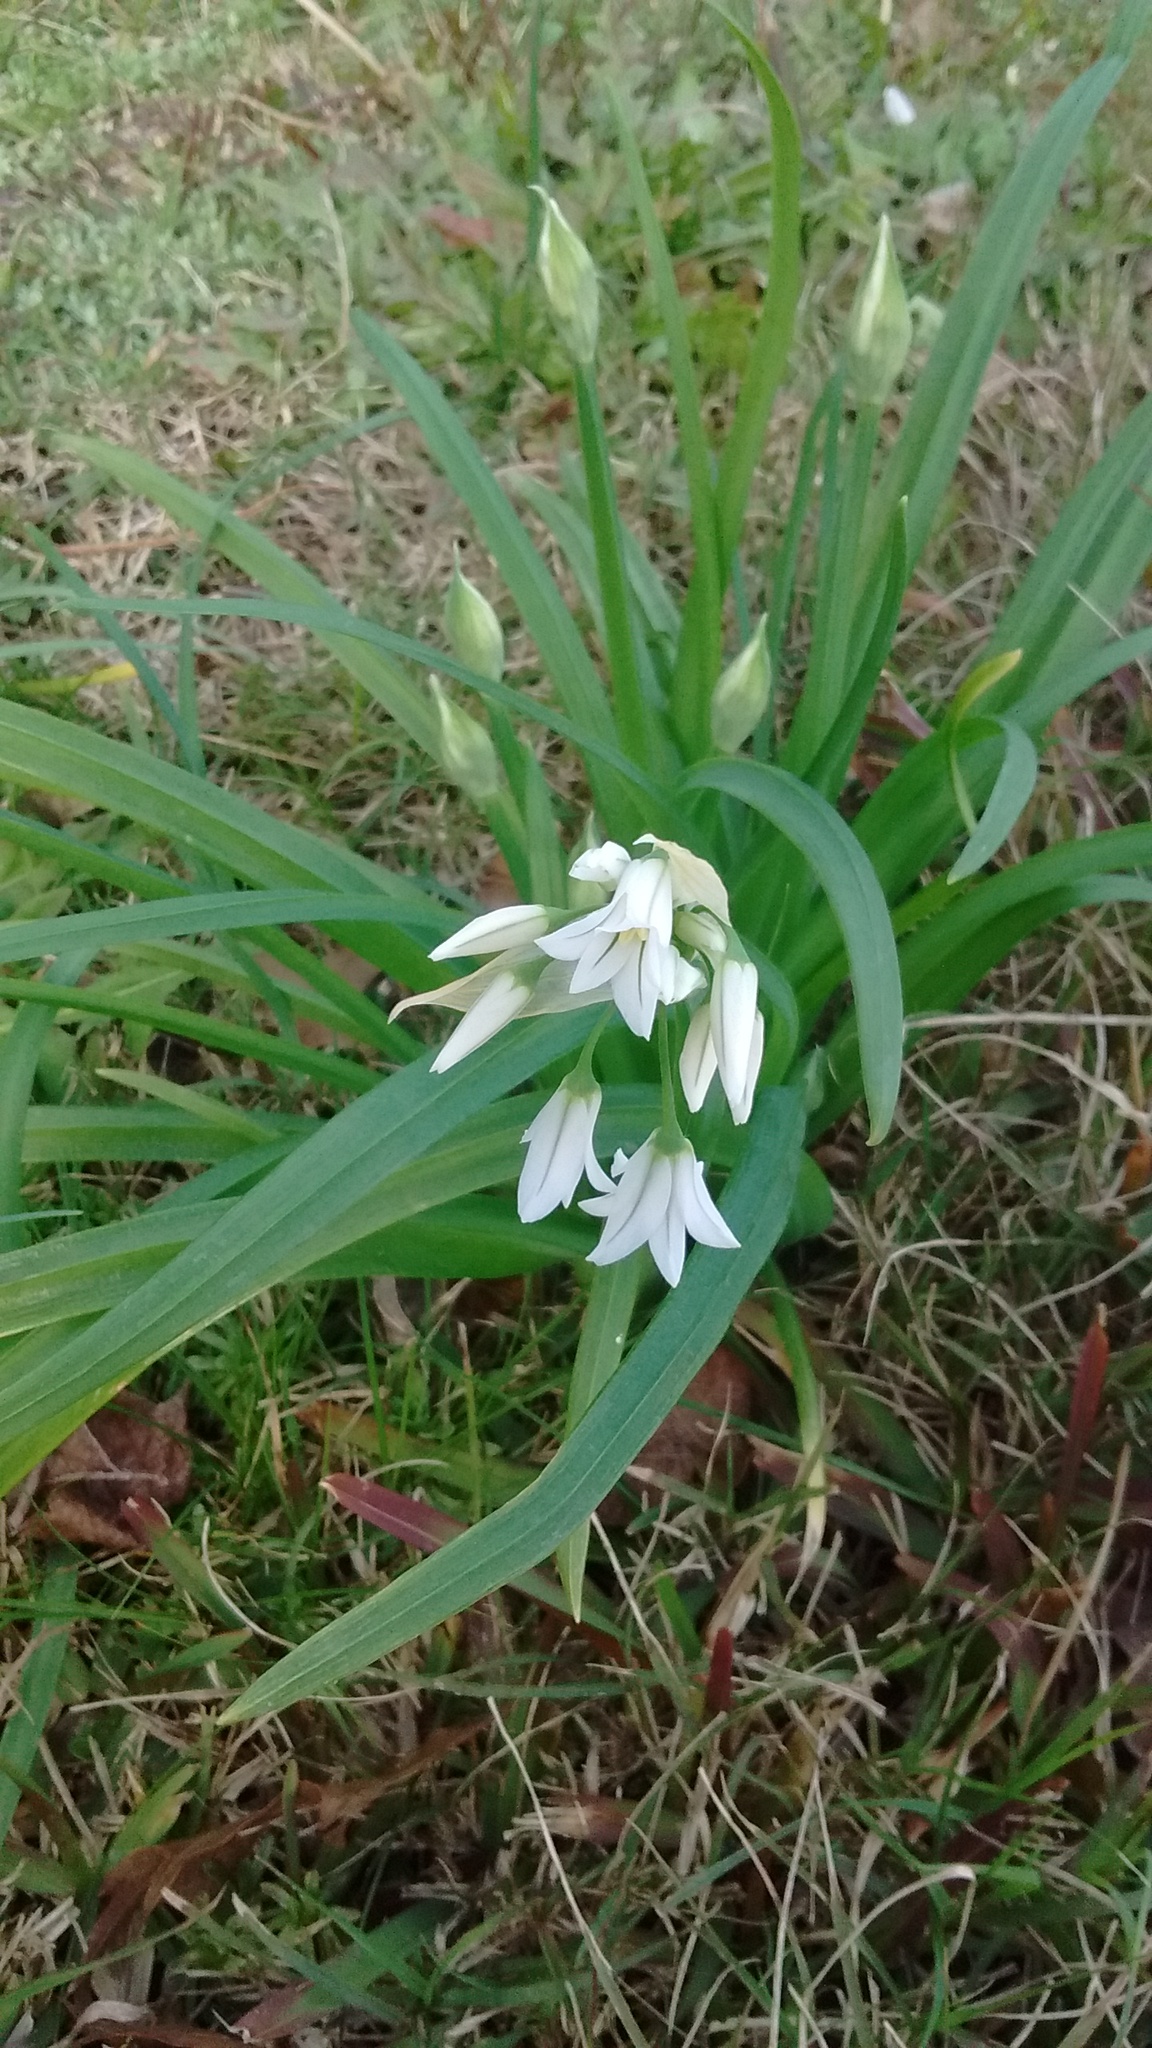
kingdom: Plantae
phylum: Tracheophyta
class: Liliopsida
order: Asparagales
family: Amaryllidaceae
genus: Allium
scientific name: Allium triquetrum
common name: Three-cornered garlic
